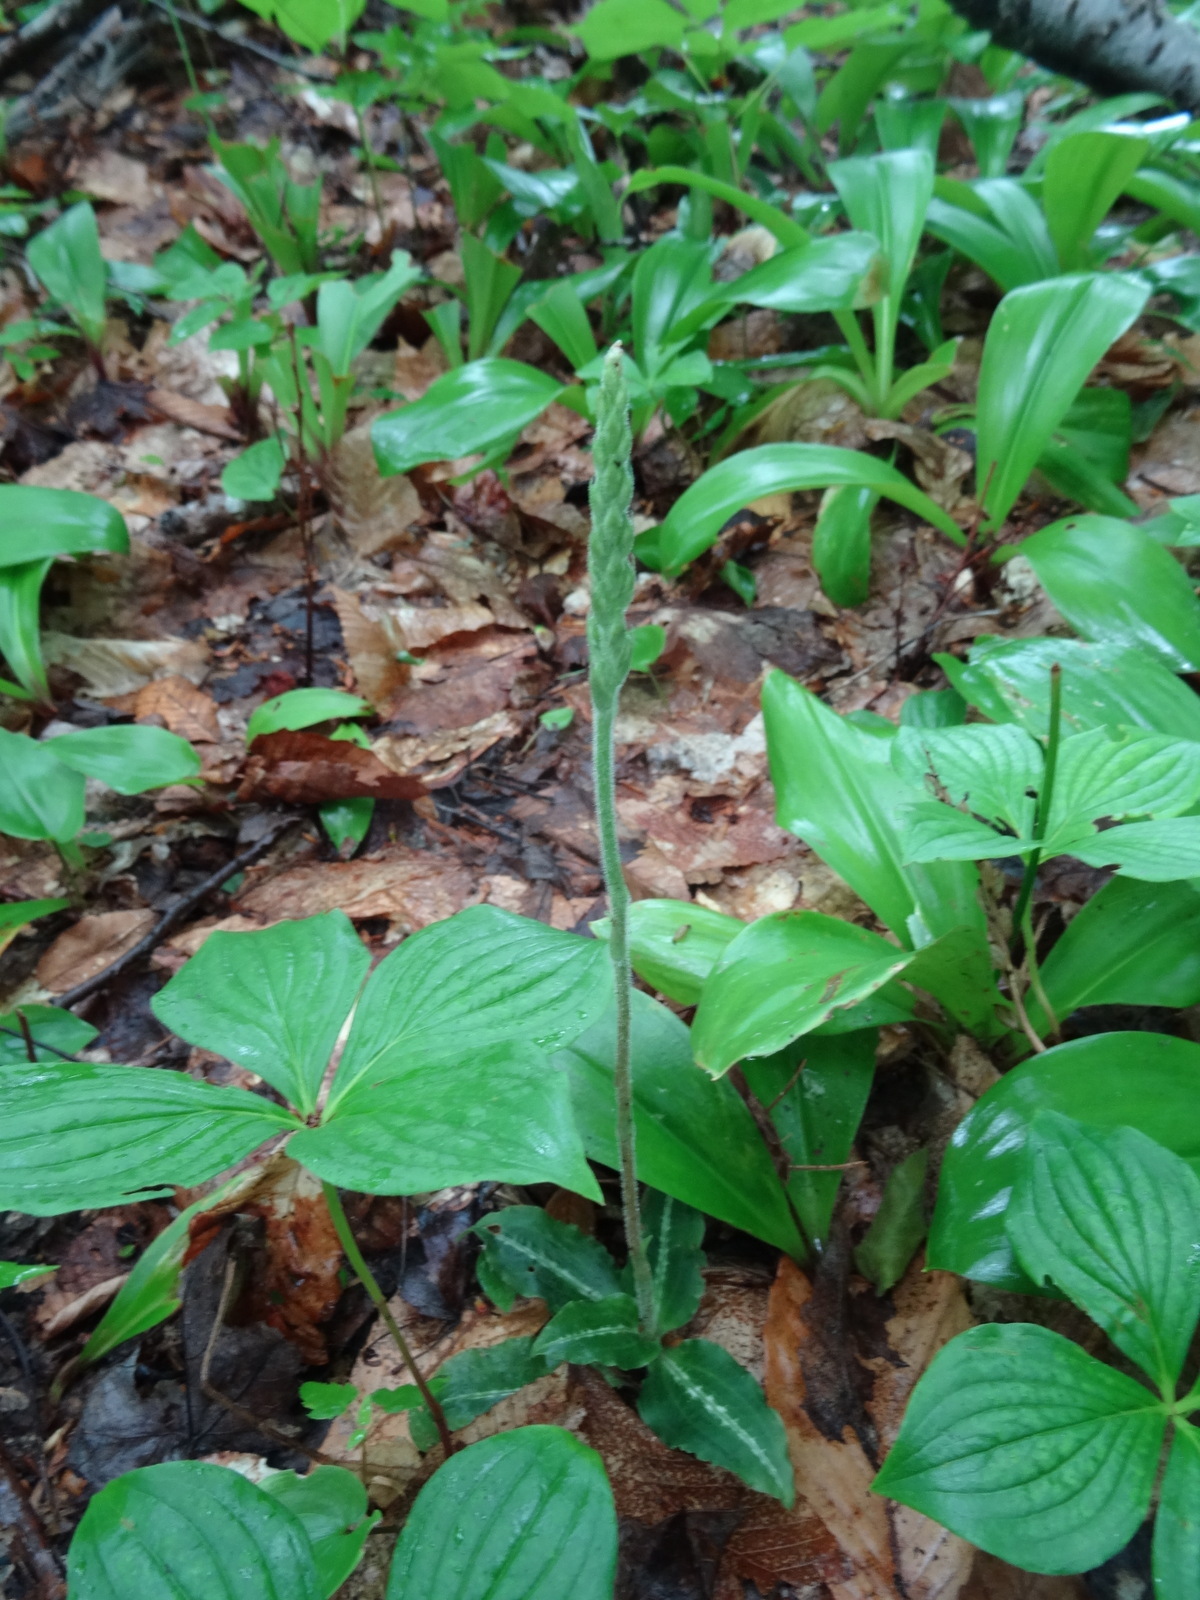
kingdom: Plantae
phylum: Tracheophyta
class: Liliopsida
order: Asparagales
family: Orchidaceae
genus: Goodyera
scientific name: Goodyera oblongifolia
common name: Giant rattlesnake-plantain
